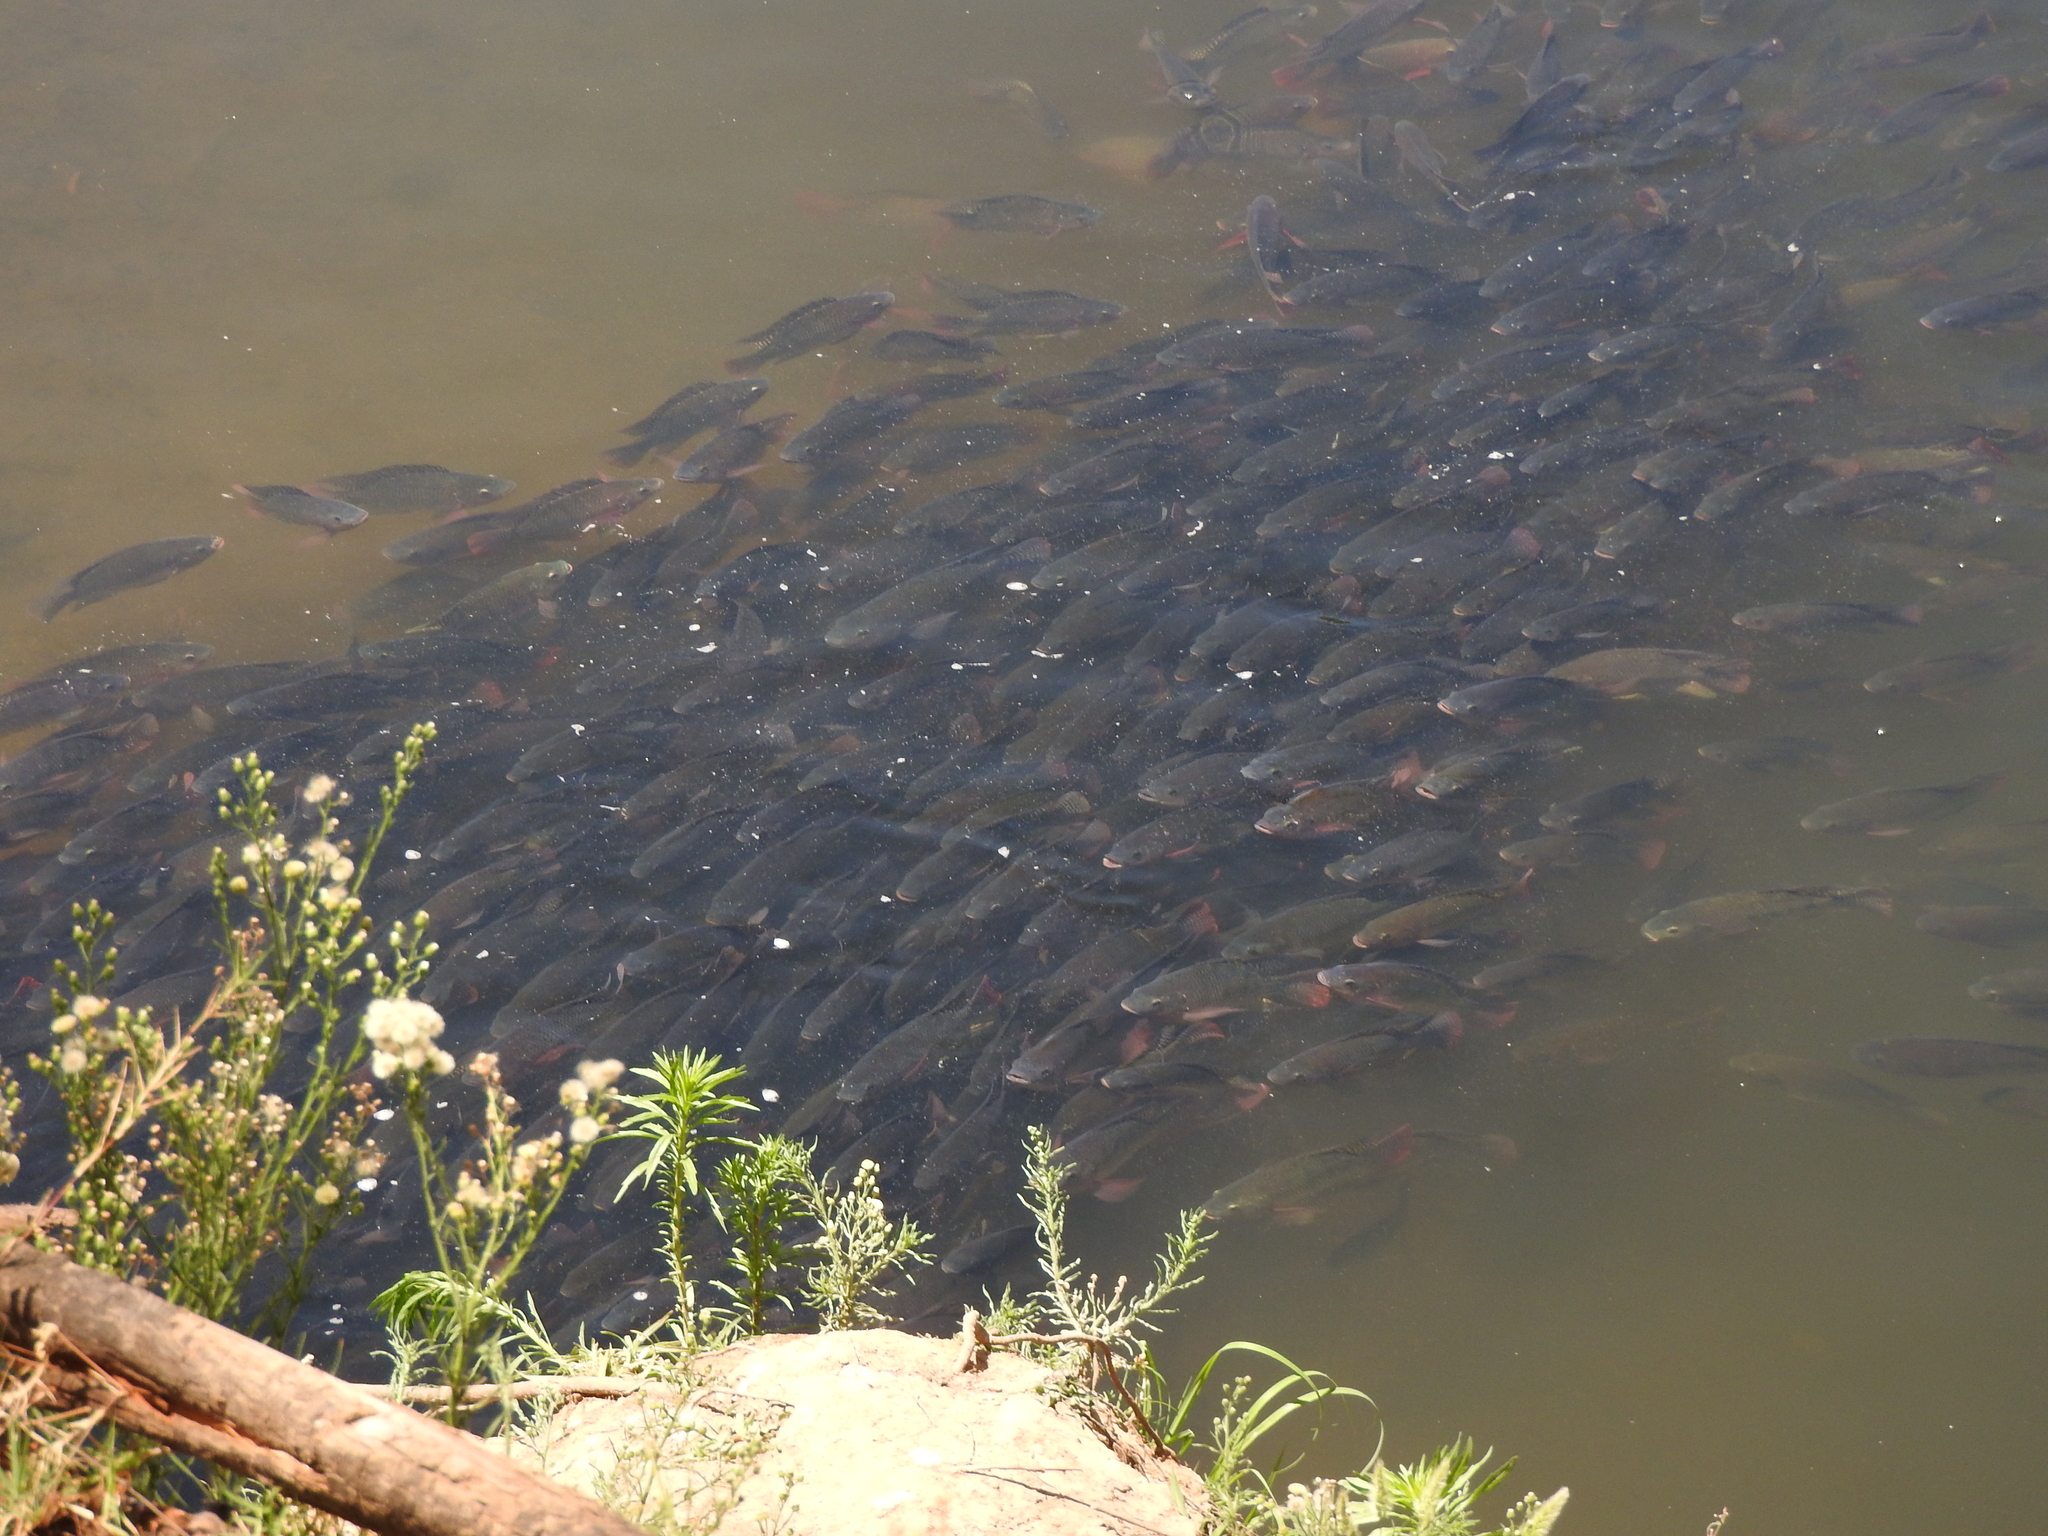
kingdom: Animalia
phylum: Chordata
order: Perciformes
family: Cichlidae
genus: Oreochromis
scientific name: Oreochromis niloticus
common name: Nile tilapia
